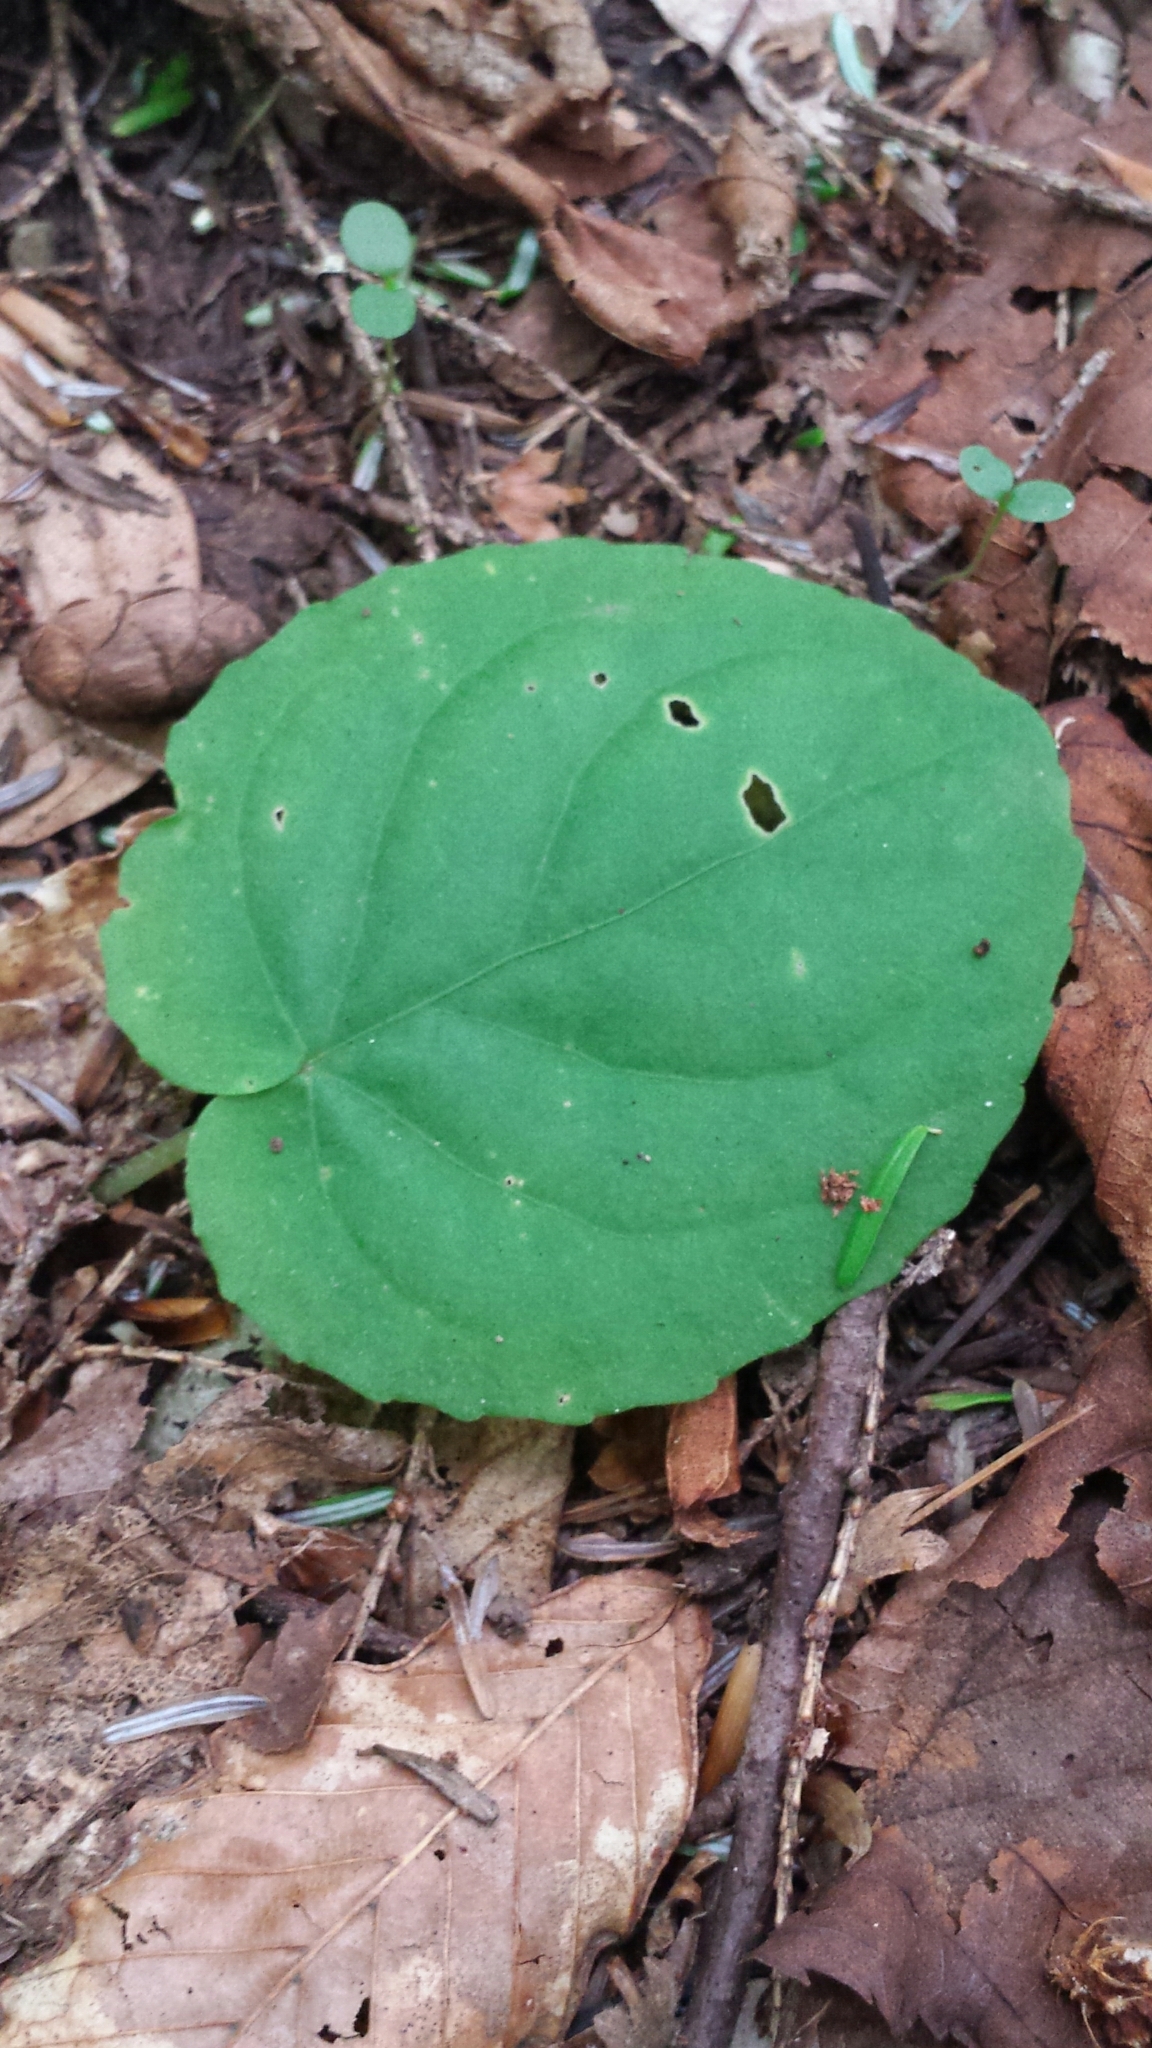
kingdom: Plantae
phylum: Tracheophyta
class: Magnoliopsida
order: Malpighiales
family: Violaceae
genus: Viola
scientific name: Viola rotundifolia
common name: Early yellow violet
